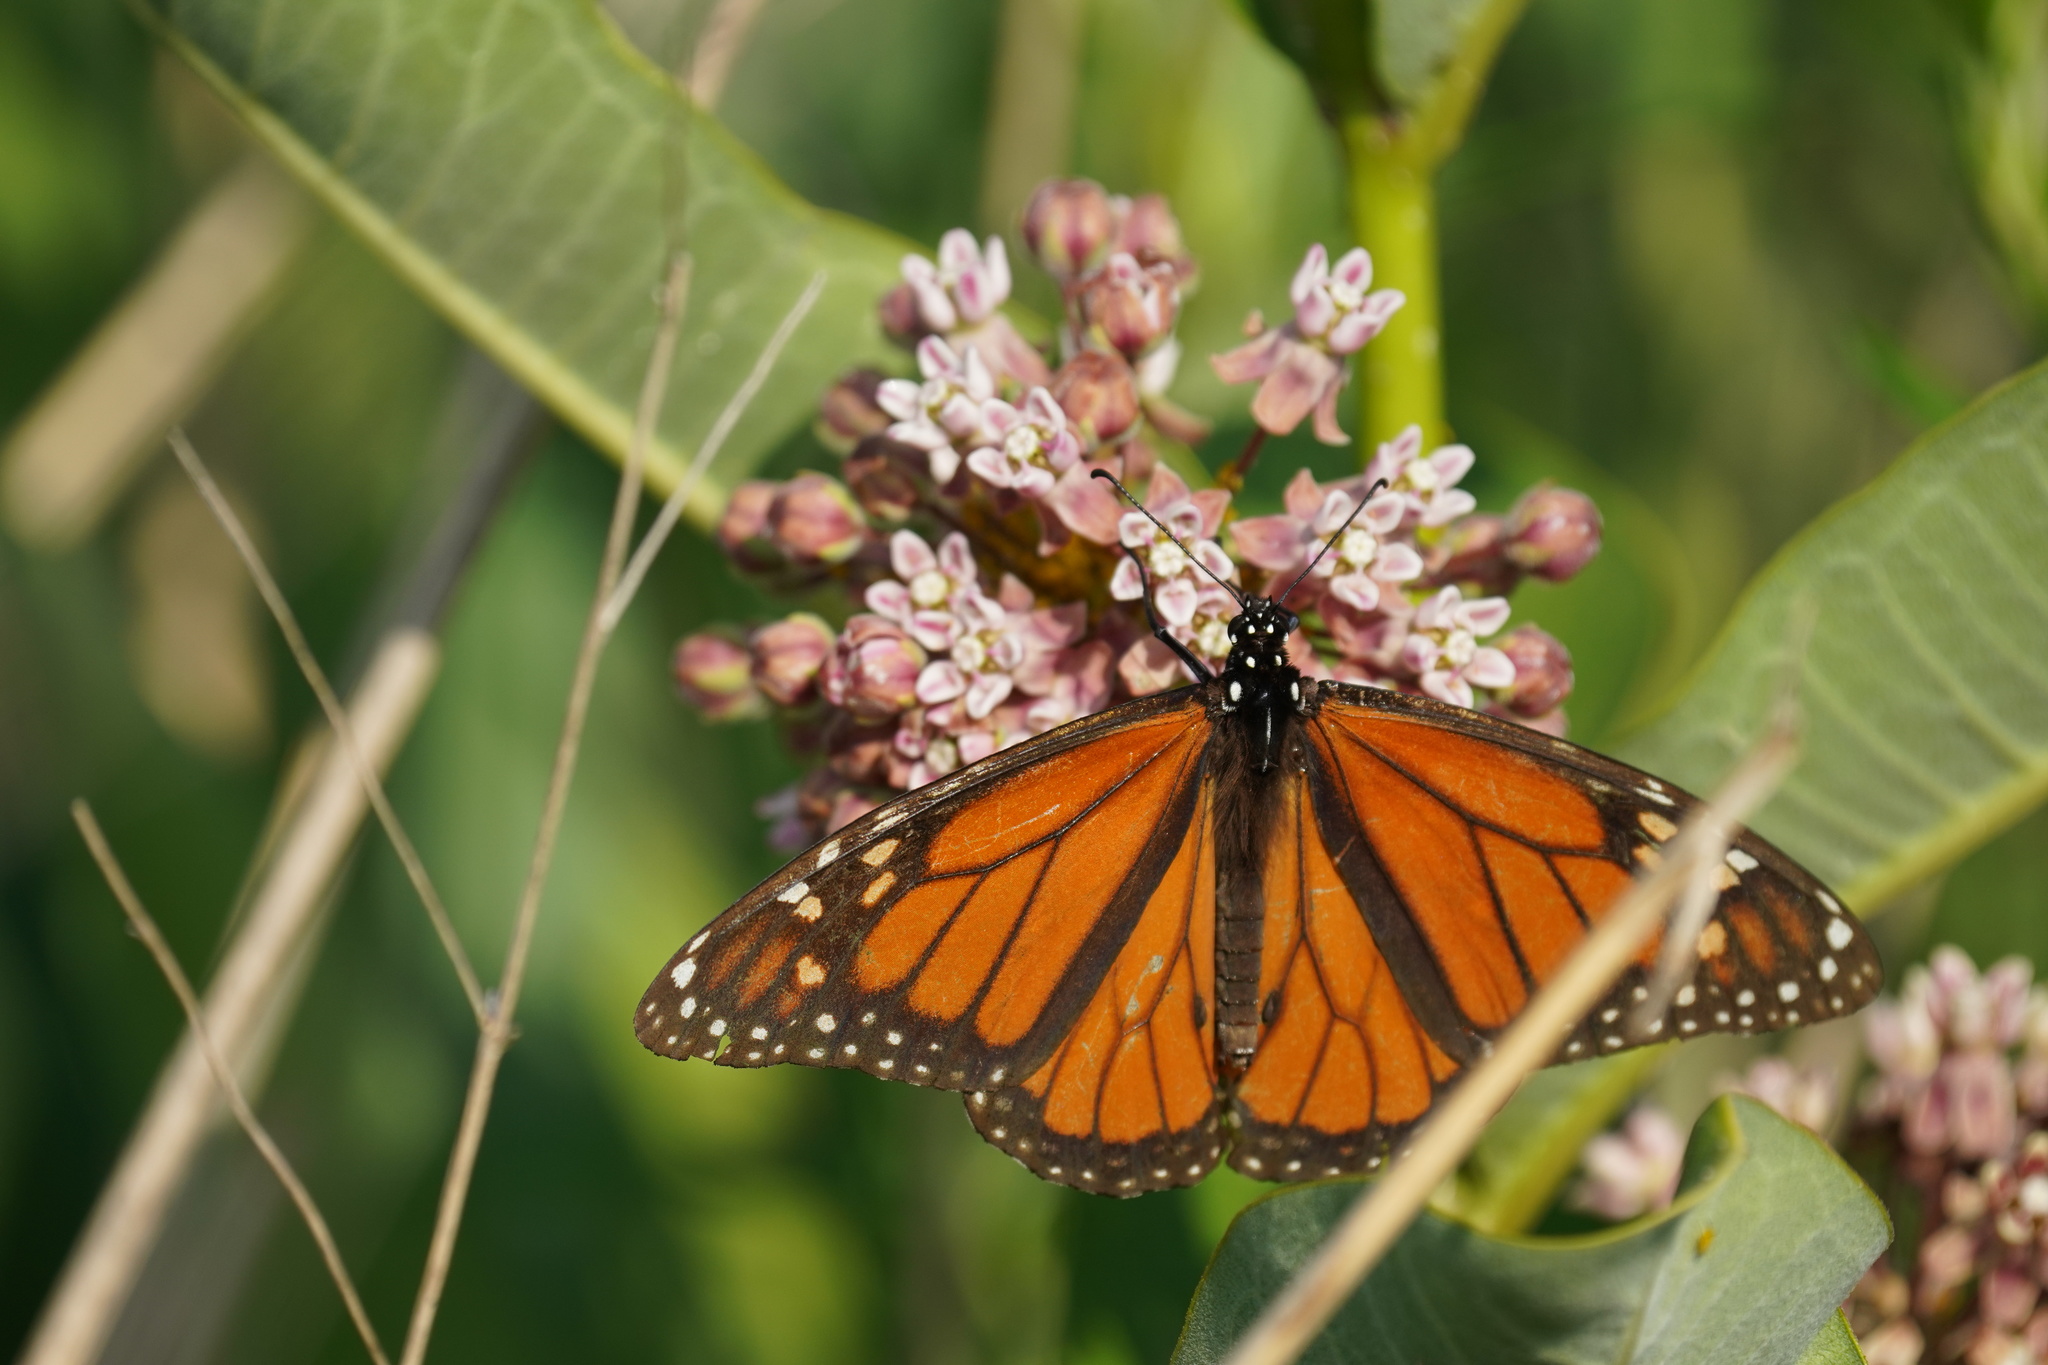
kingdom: Animalia
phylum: Arthropoda
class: Insecta
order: Lepidoptera
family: Nymphalidae
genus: Danaus
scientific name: Danaus plexippus
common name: Monarch
